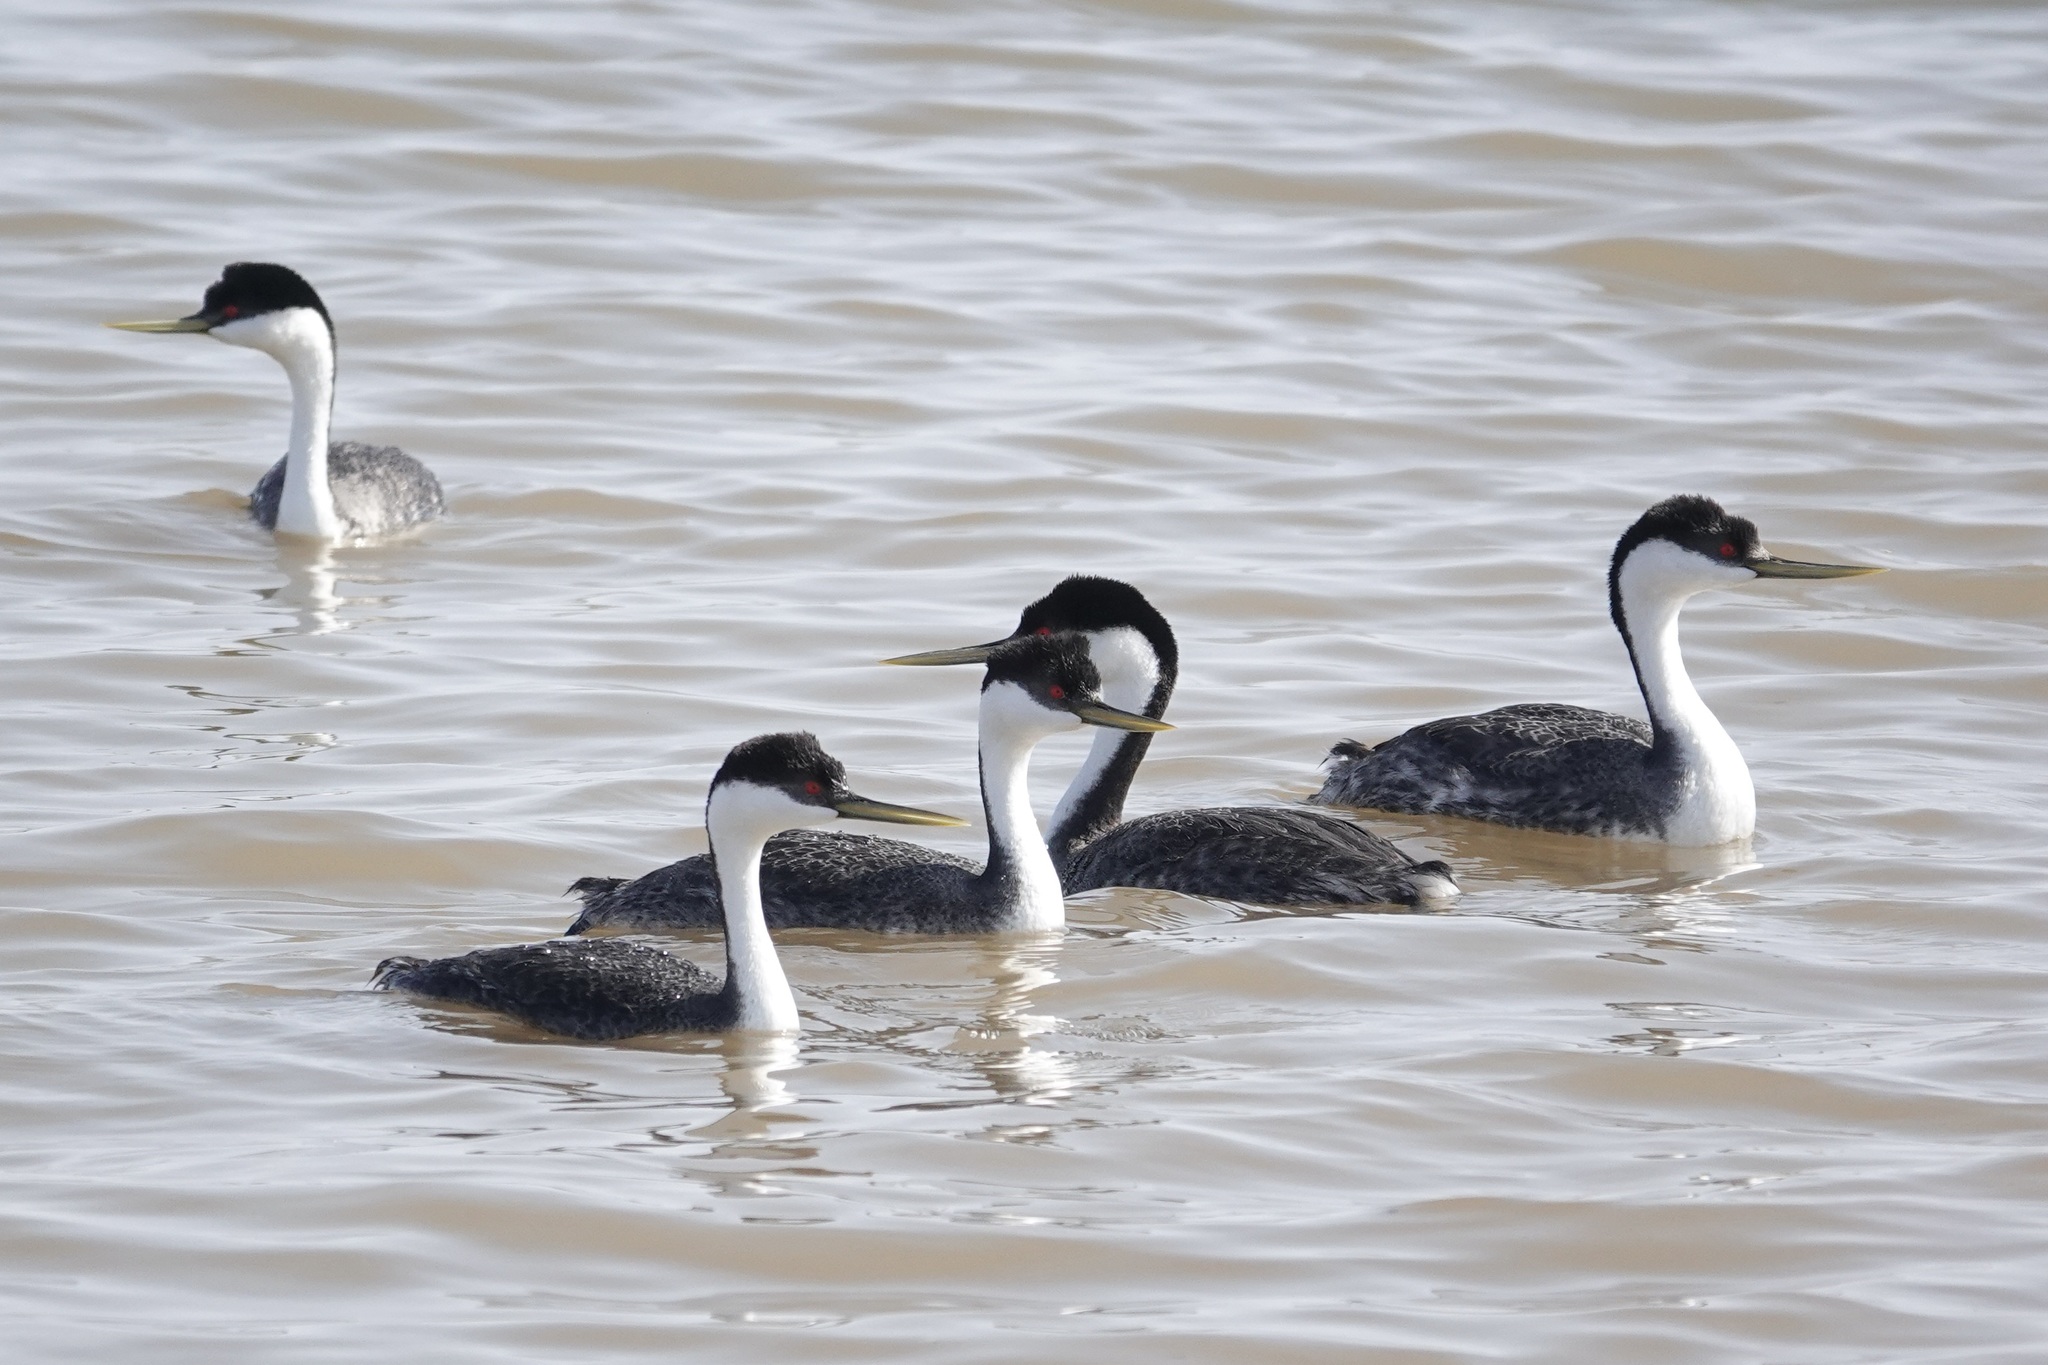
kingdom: Animalia
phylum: Chordata
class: Aves
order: Podicipediformes
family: Podicipedidae
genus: Aechmophorus
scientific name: Aechmophorus occidentalis
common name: Western grebe
